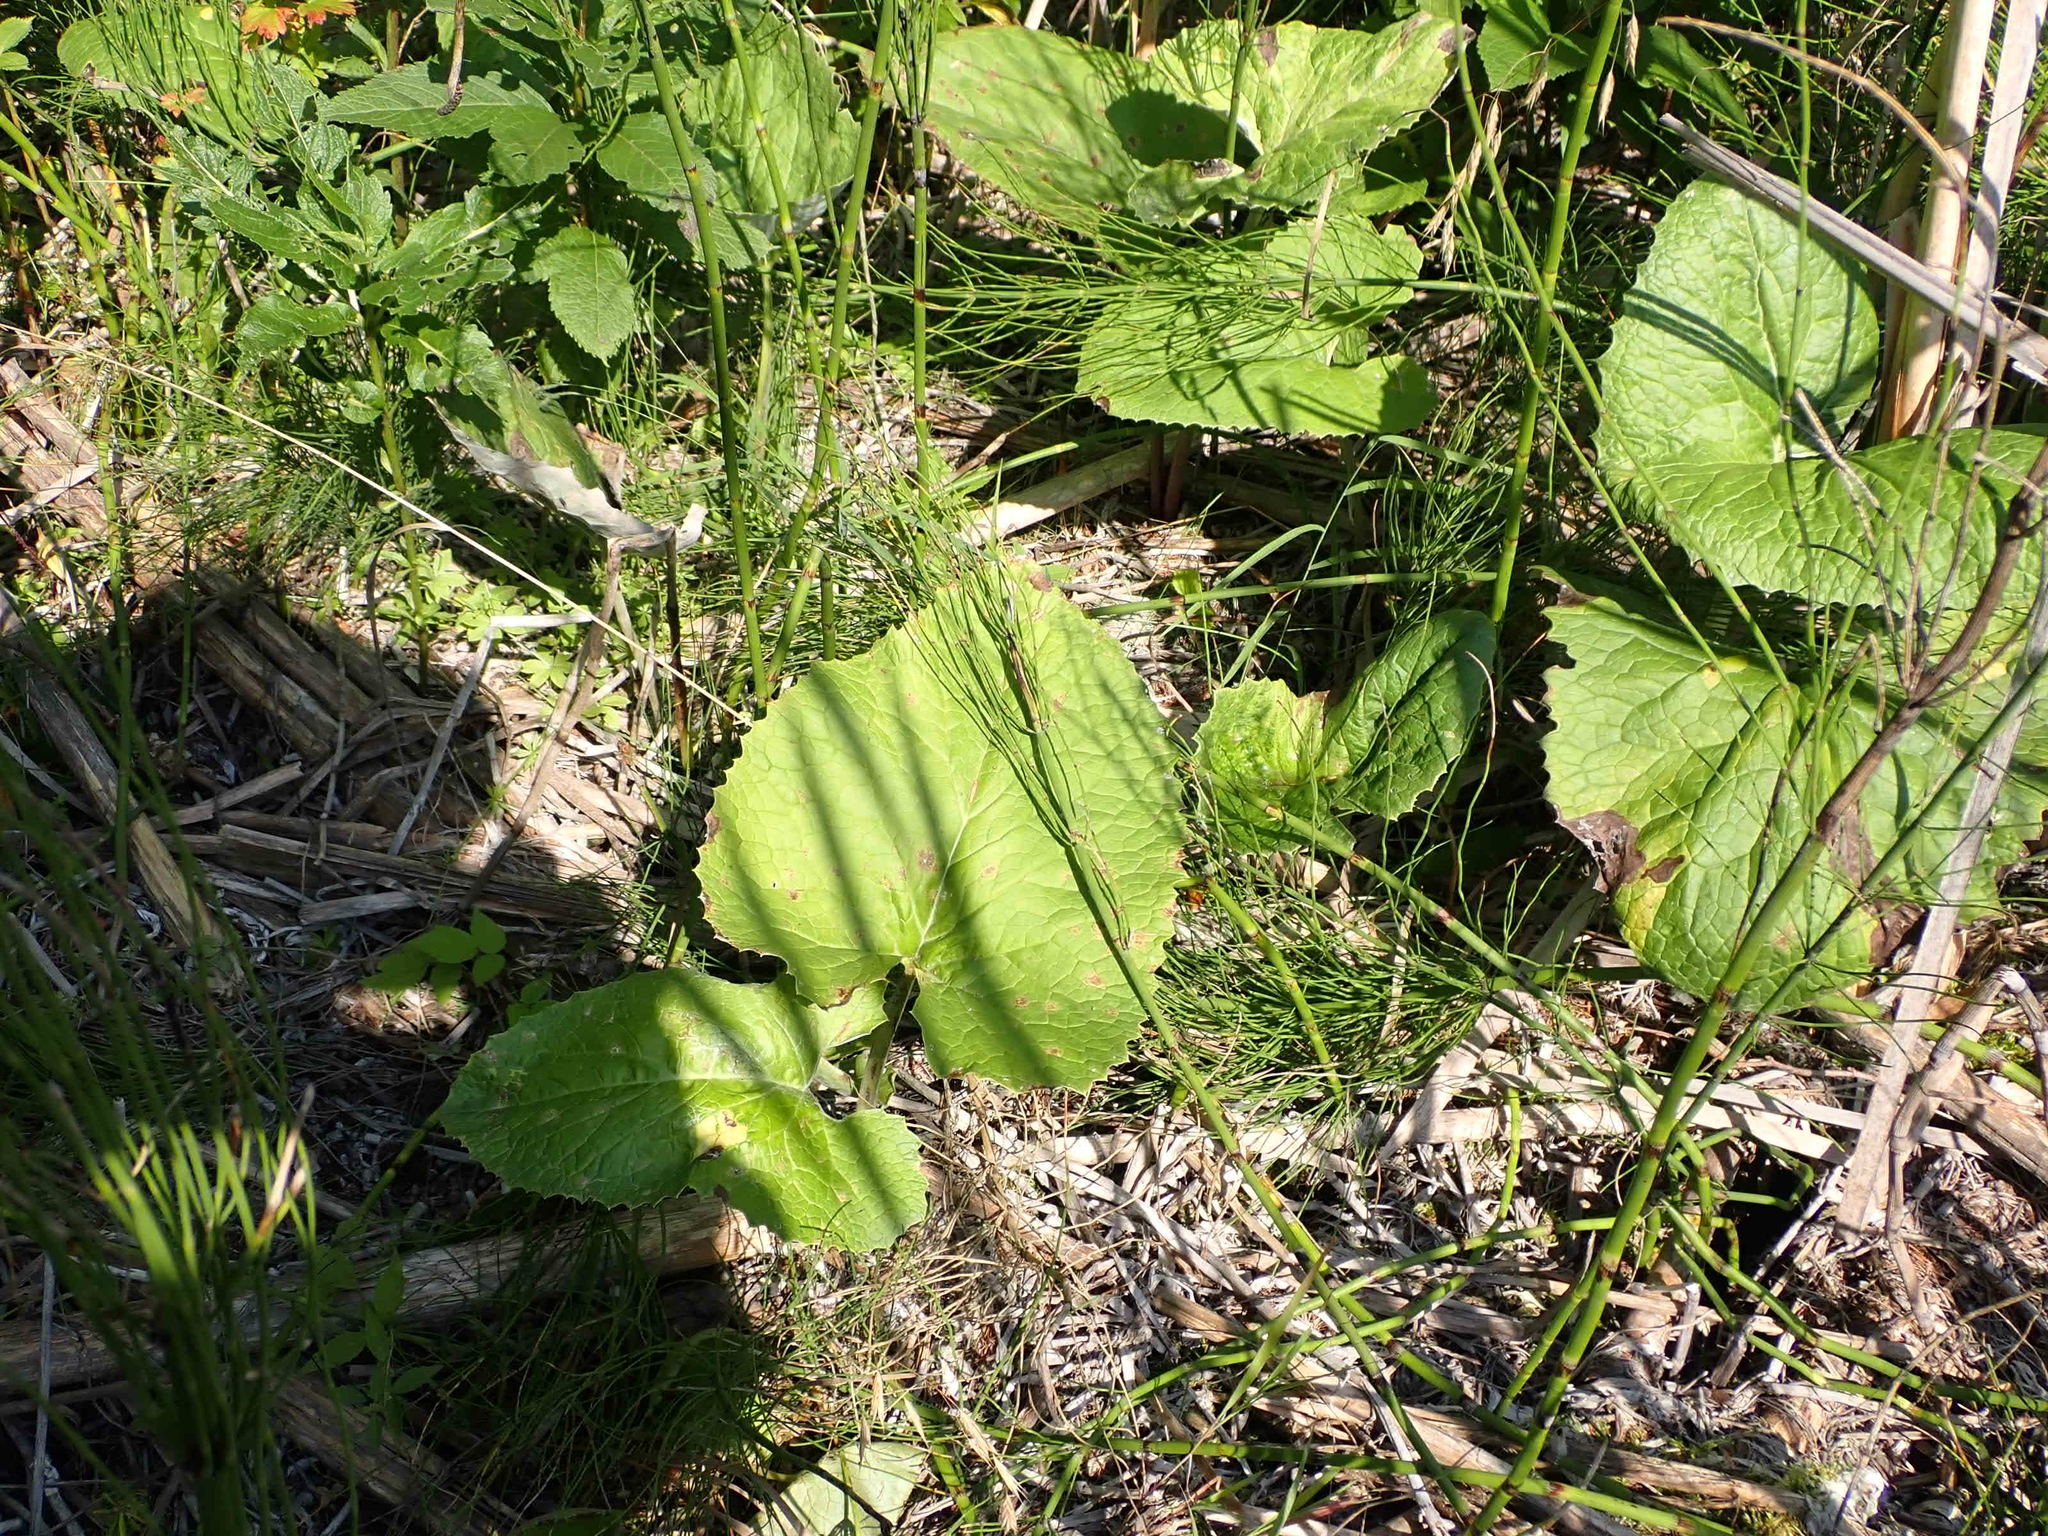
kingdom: Plantae
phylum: Tracheophyta
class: Magnoliopsida
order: Asterales
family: Asteraceae
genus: Petasites
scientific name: Petasites frigidus
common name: Arctic butterbur
